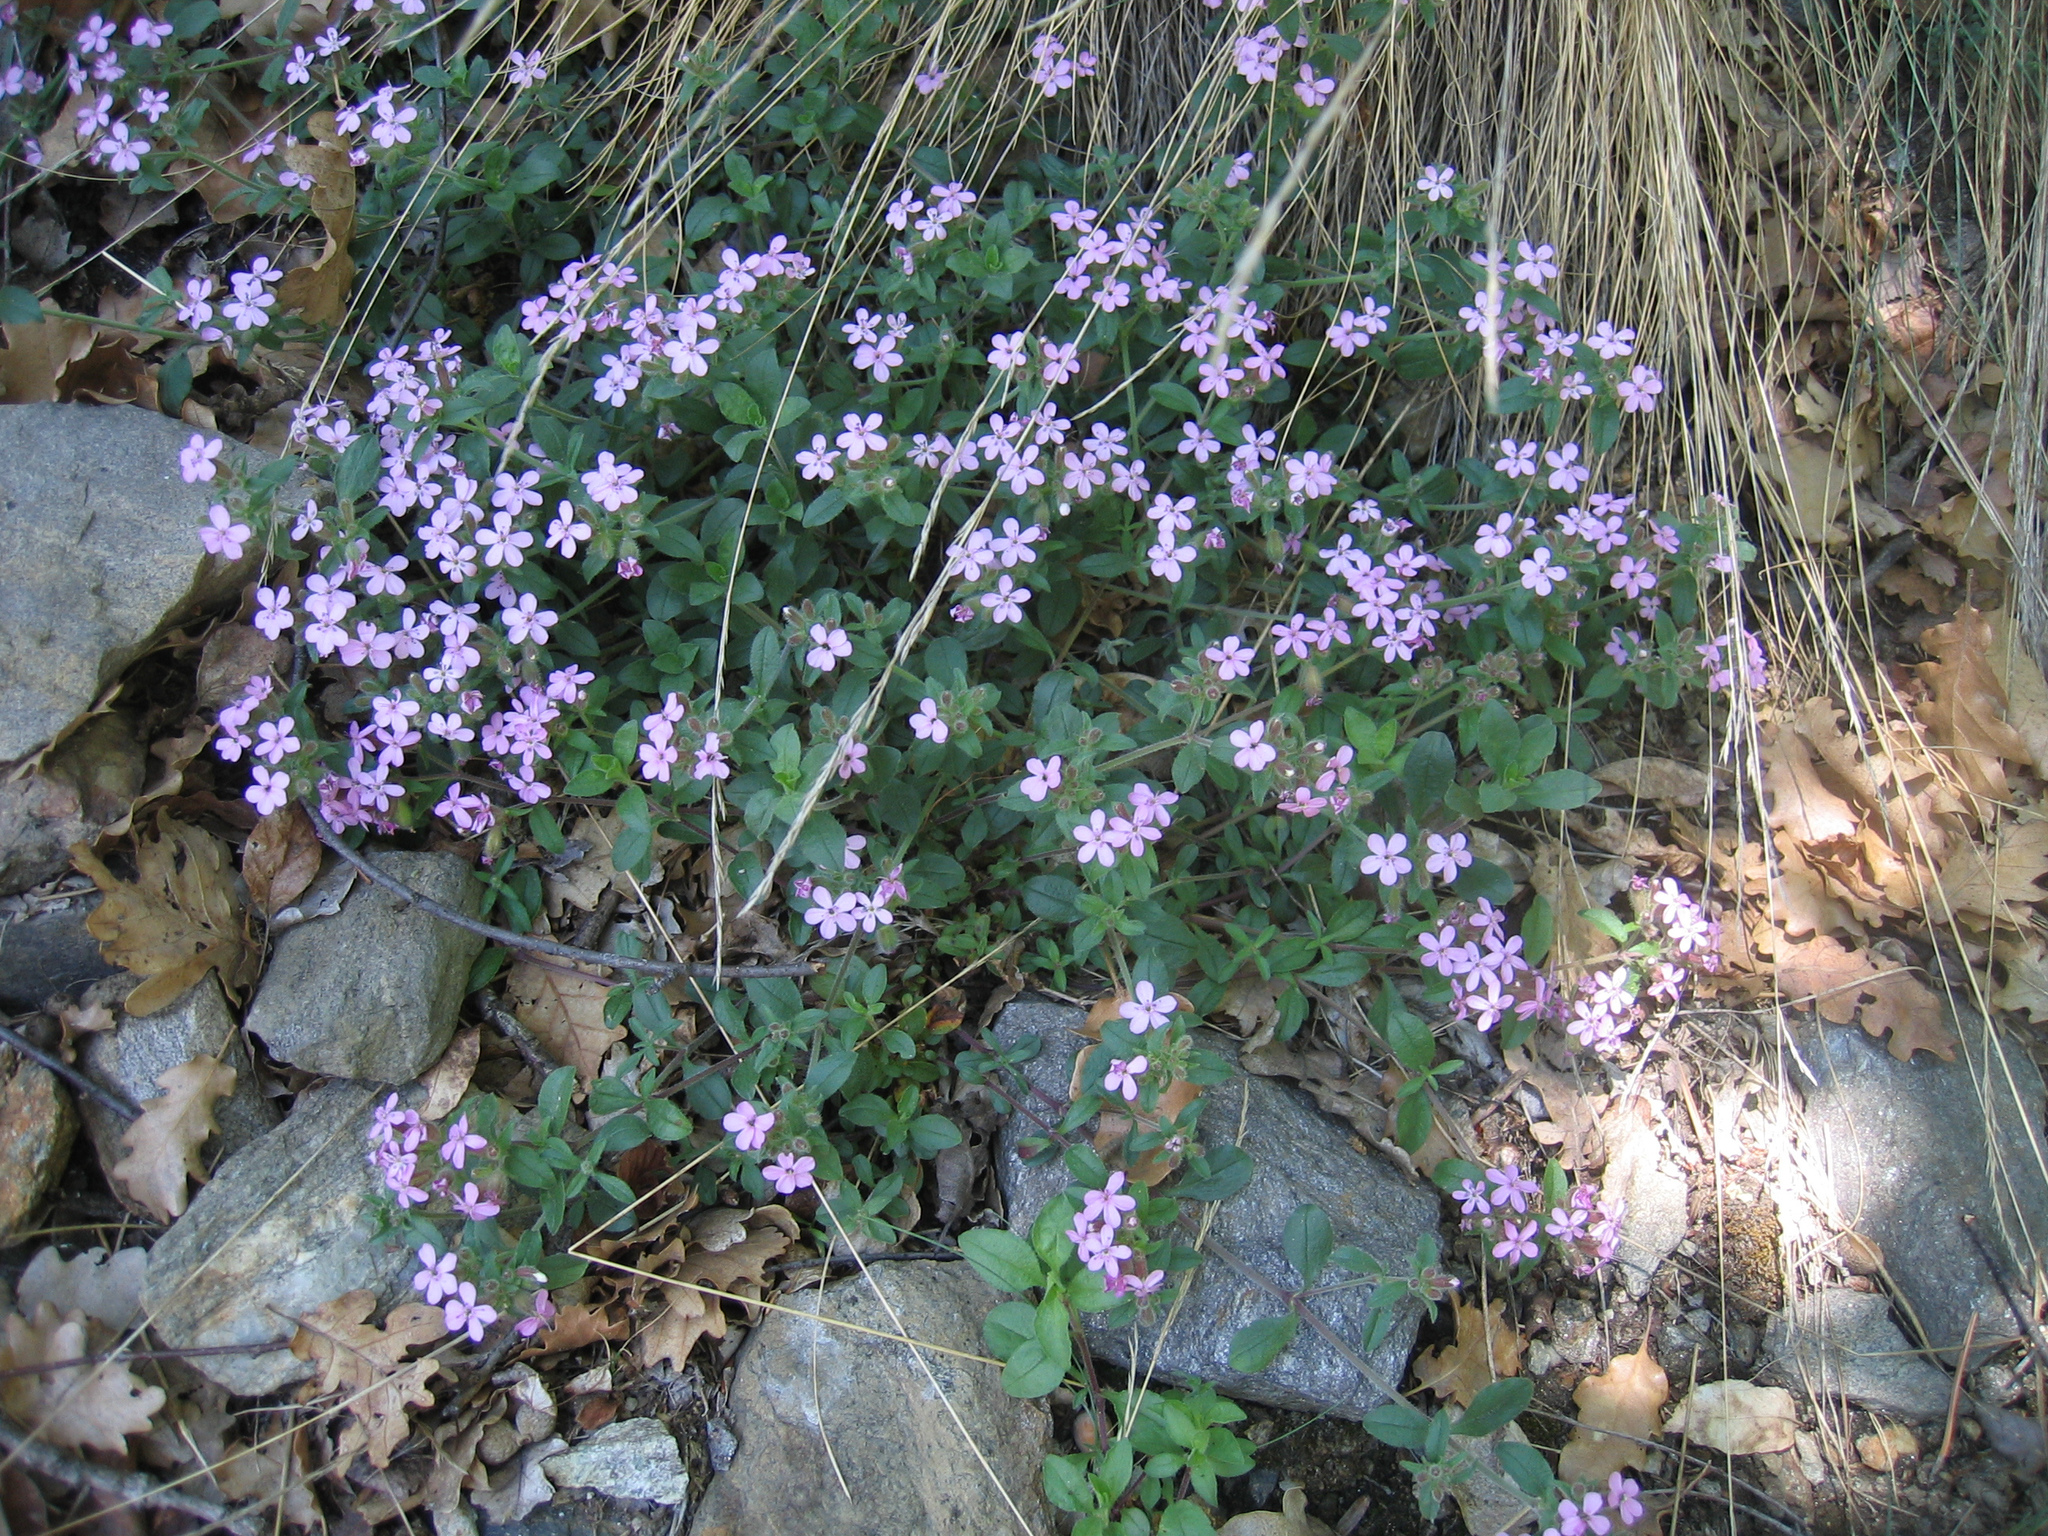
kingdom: Plantae
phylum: Tracheophyta
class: Magnoliopsida
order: Caryophyllales
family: Caryophyllaceae
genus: Saponaria
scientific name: Saponaria ocymoides
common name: Rock soapwort
